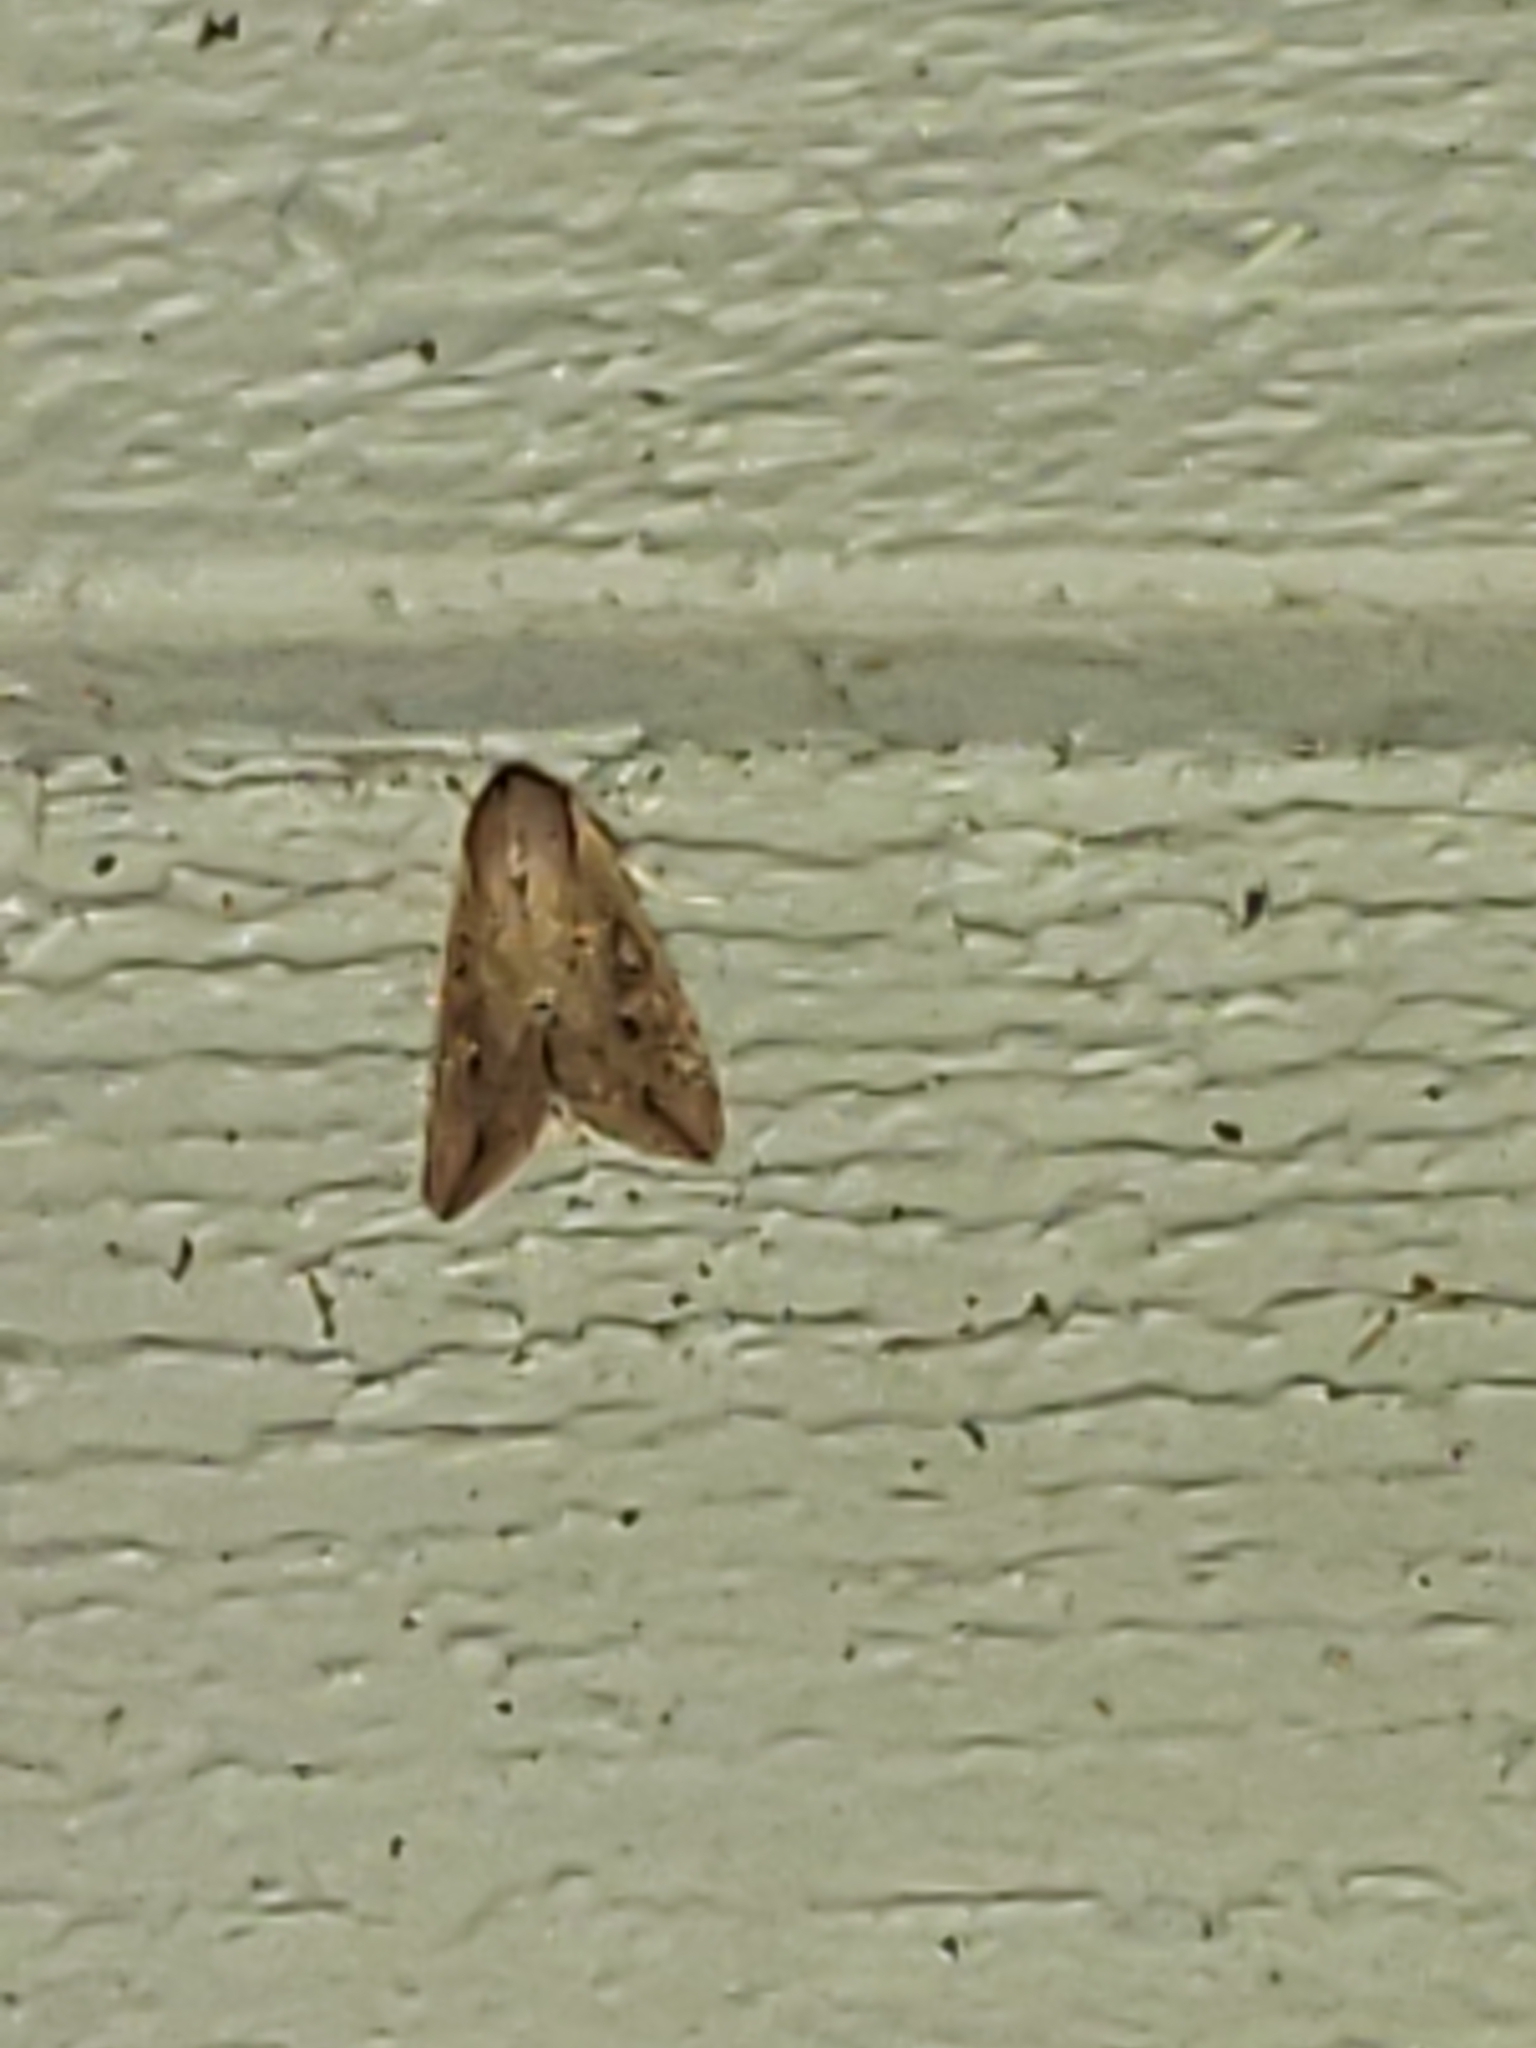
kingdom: Animalia
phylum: Arthropoda
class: Insecta
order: Lepidoptera
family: Noctuidae
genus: Mythimna
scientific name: Mythimna unipuncta
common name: White-speck
